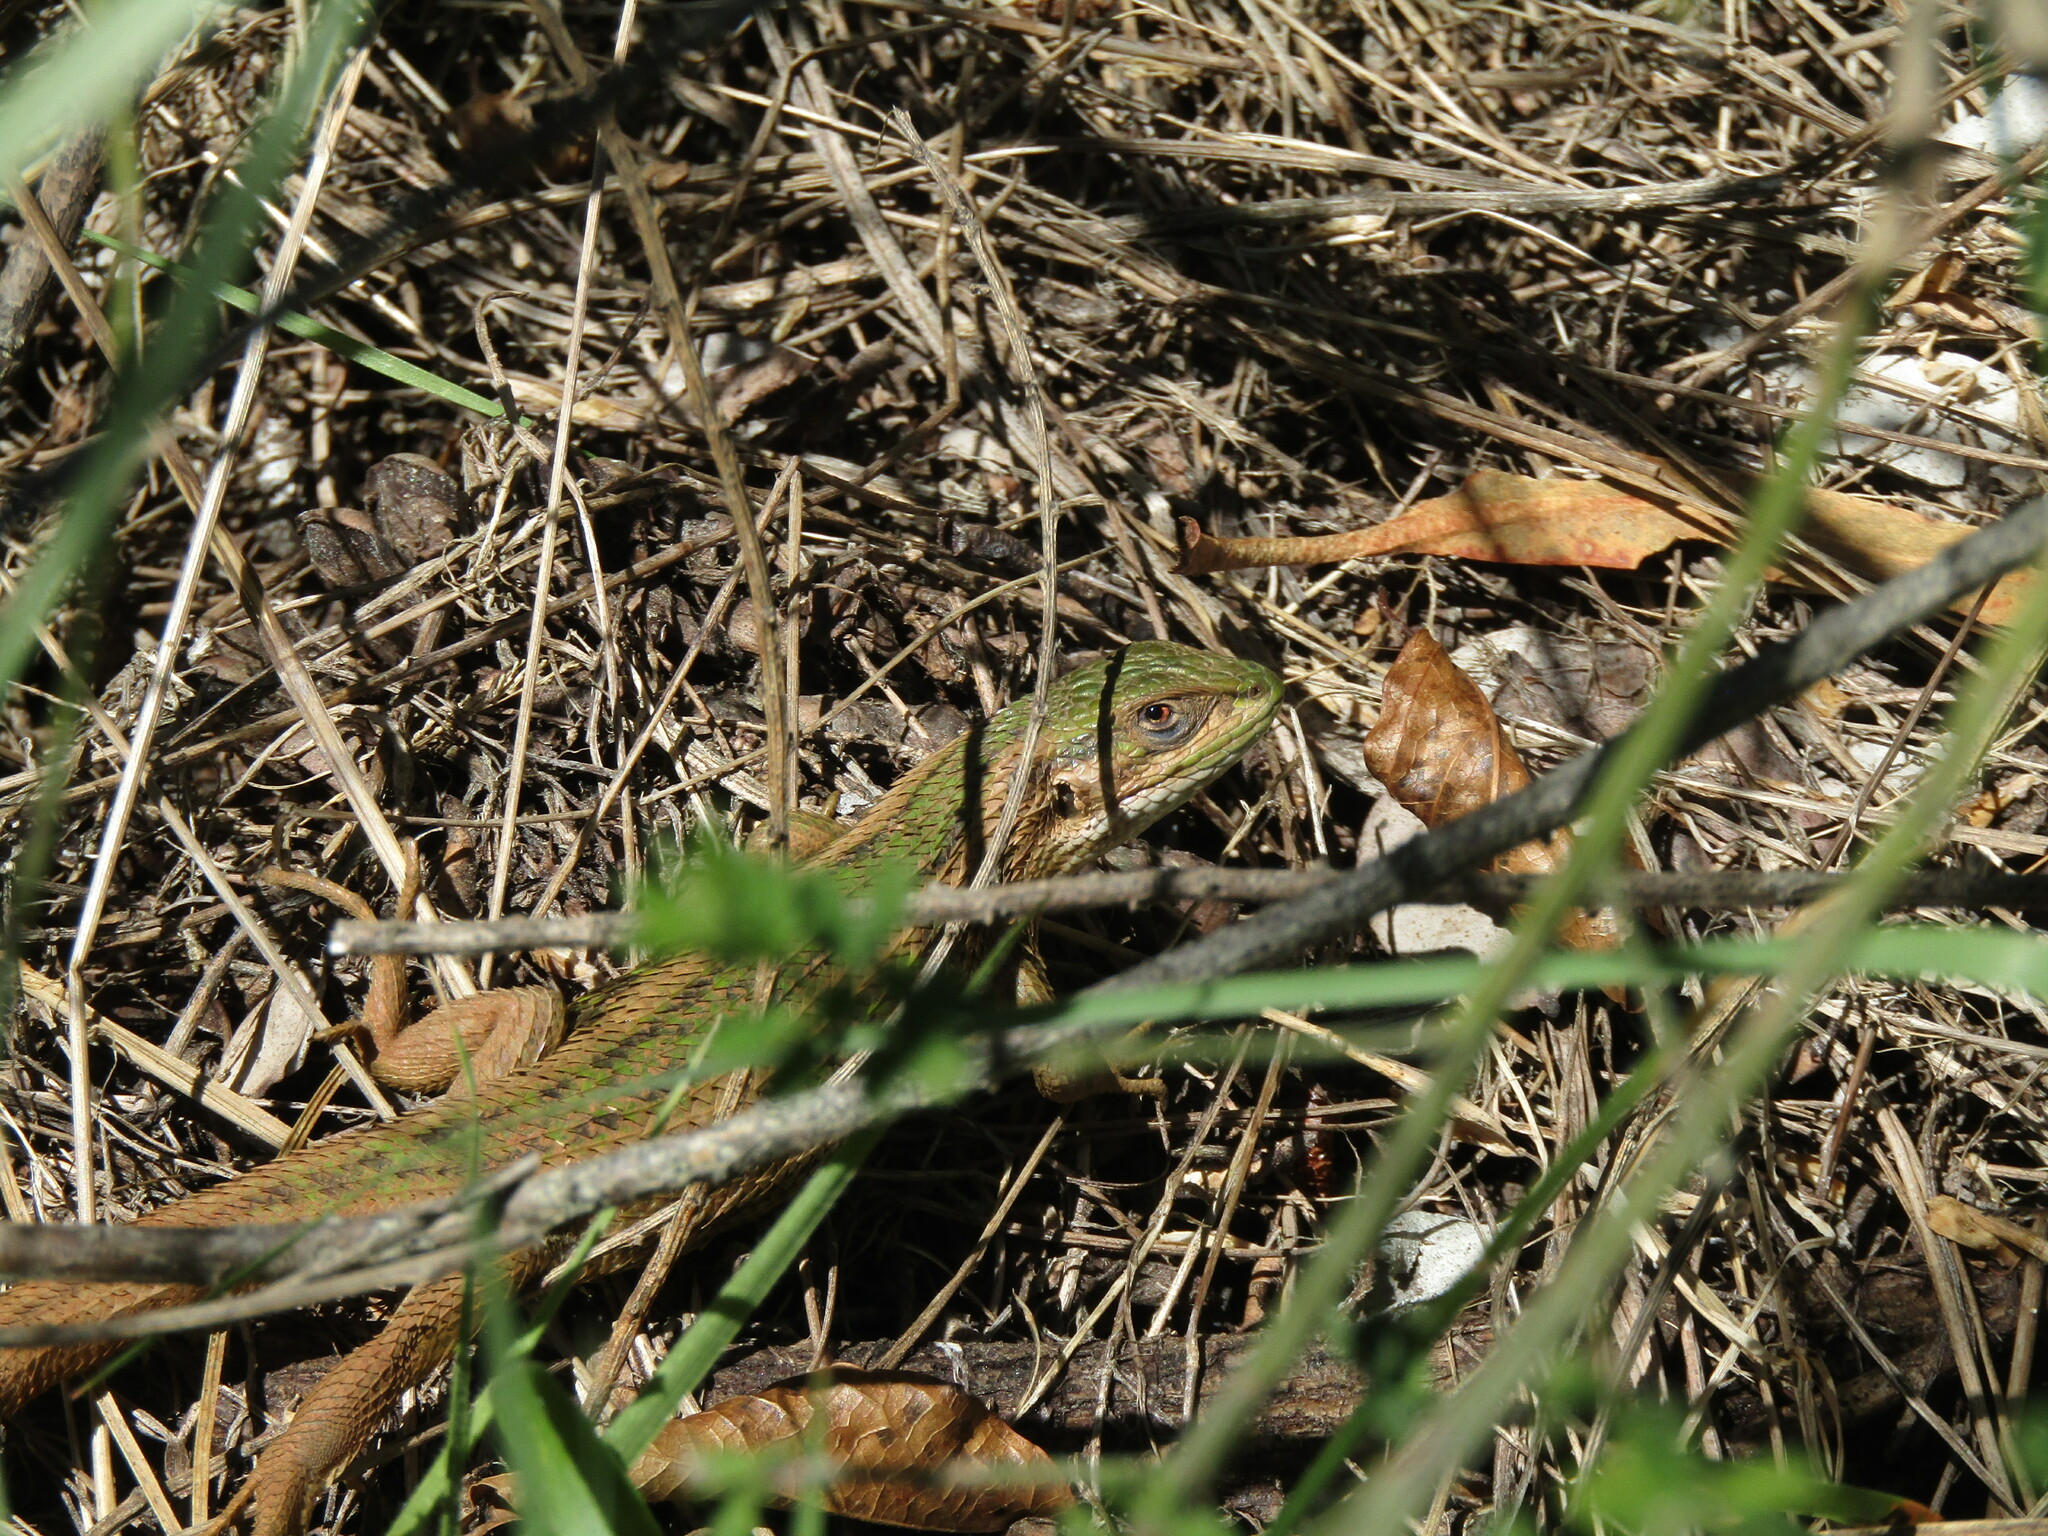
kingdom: Animalia
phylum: Chordata
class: Squamata
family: Liolaemidae
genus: Liolaemus
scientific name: Liolaemus chiliensis
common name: Chilean tree iguana
